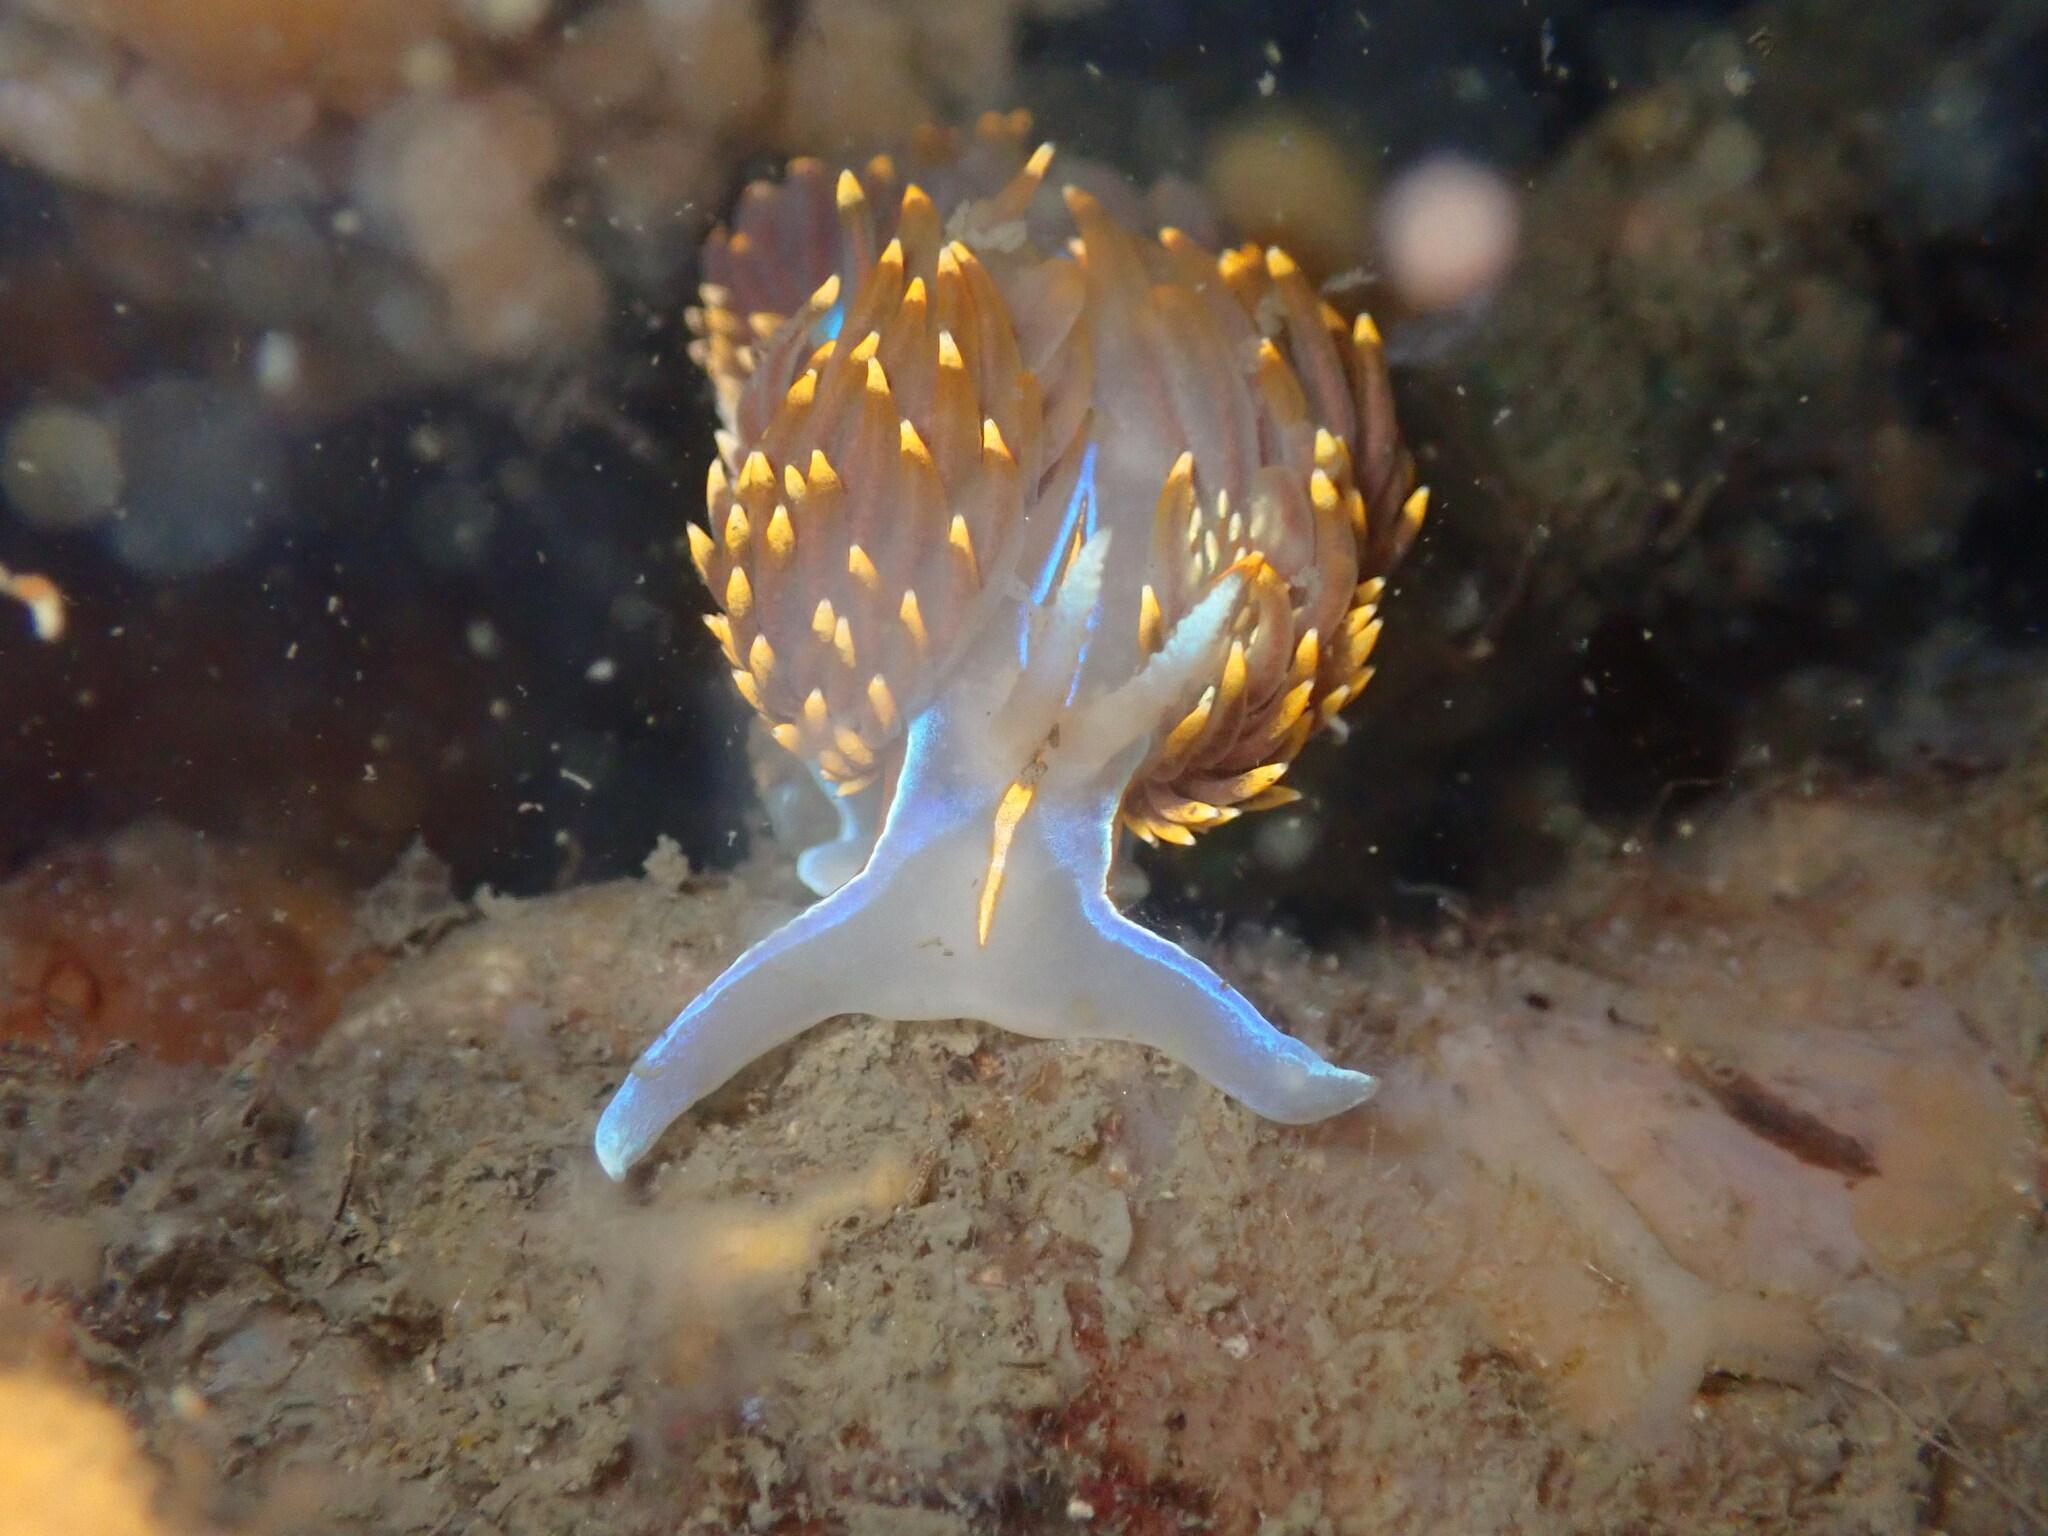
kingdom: Animalia
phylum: Mollusca
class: Gastropoda
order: Nudibranchia
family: Myrrhinidae
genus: Hermissenda
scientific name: Hermissenda opalescens
